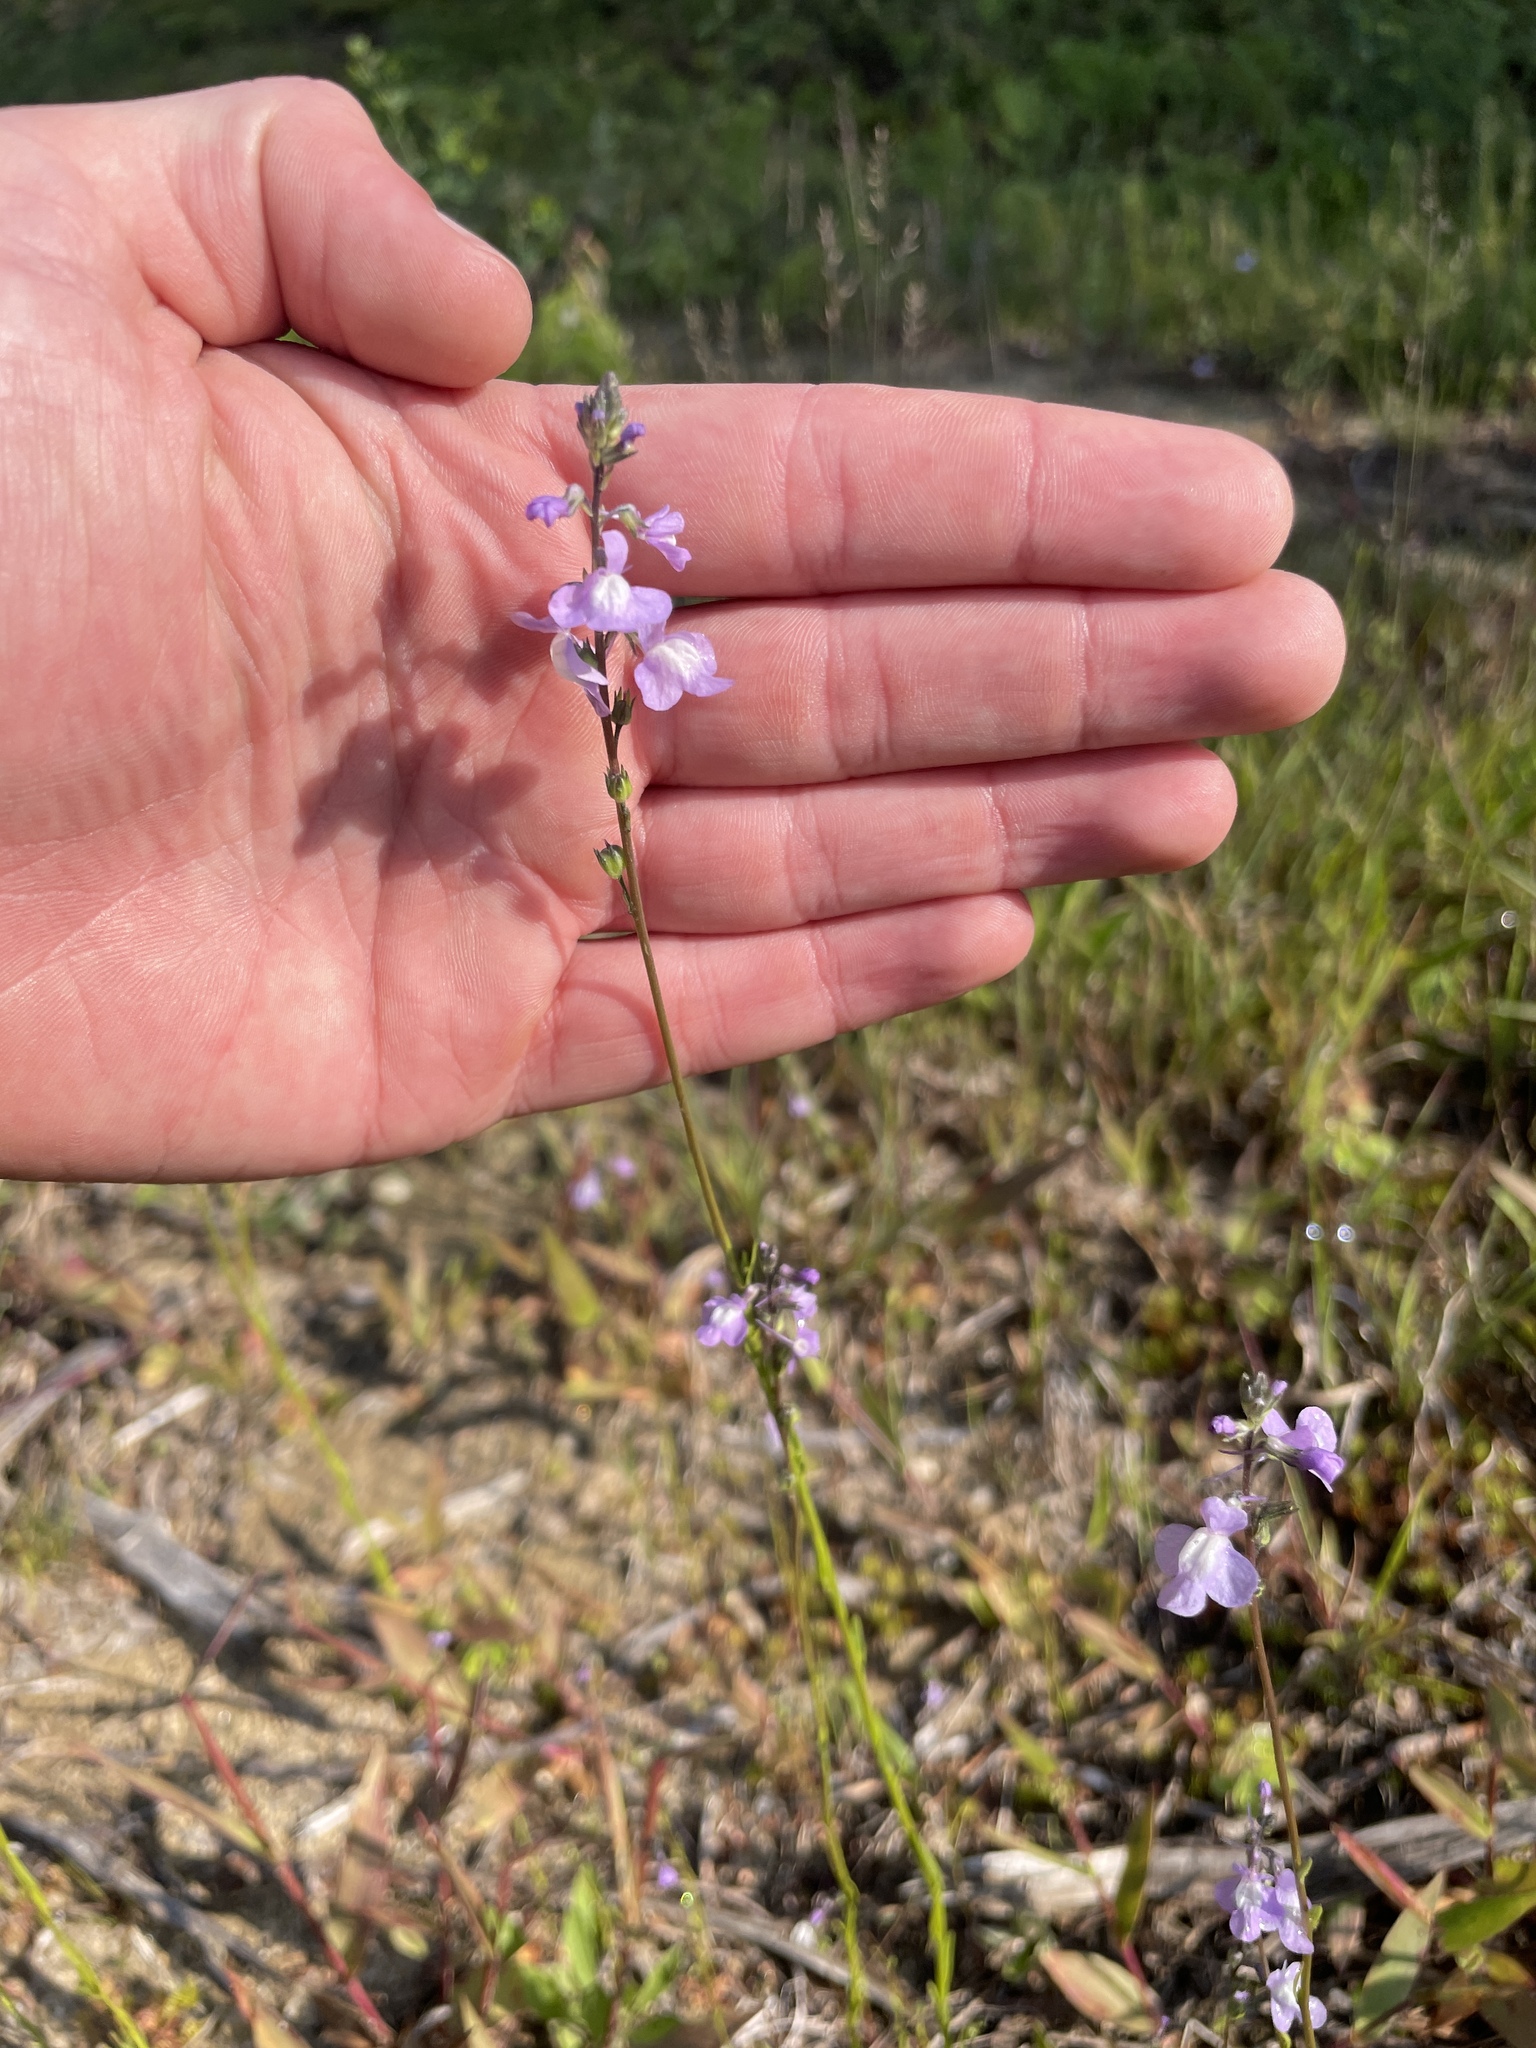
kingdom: Plantae
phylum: Tracheophyta
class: Magnoliopsida
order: Lamiales
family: Plantaginaceae
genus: Nuttallanthus
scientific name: Nuttallanthus canadensis
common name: Blue toadflax
